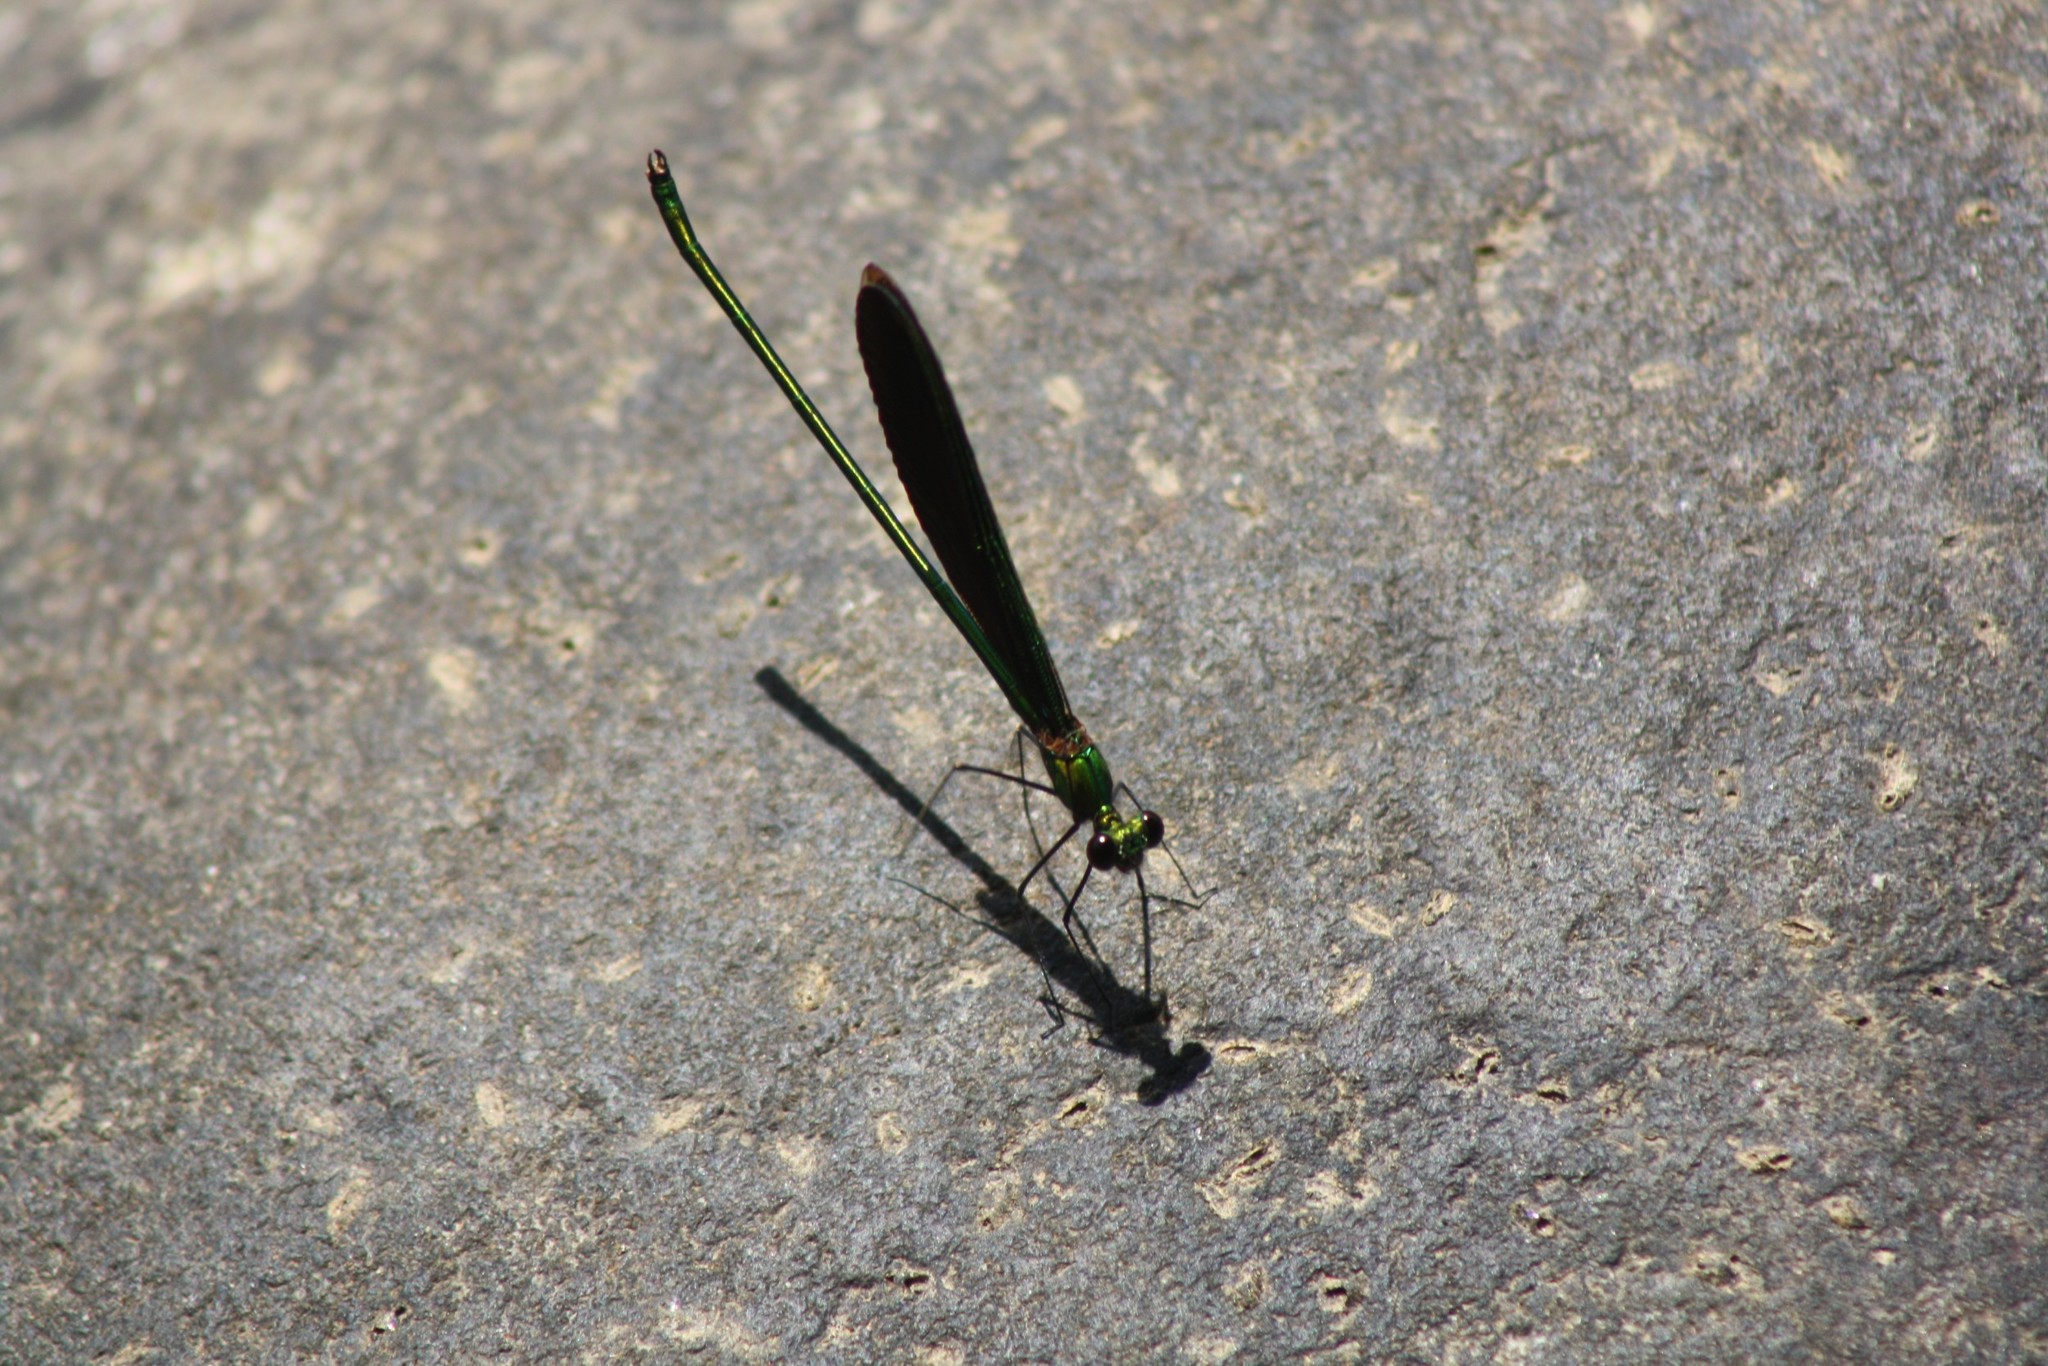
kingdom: Animalia
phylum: Arthropoda
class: Insecta
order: Odonata
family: Calopterygidae
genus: Neurobasis
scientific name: Neurobasis chinensis
